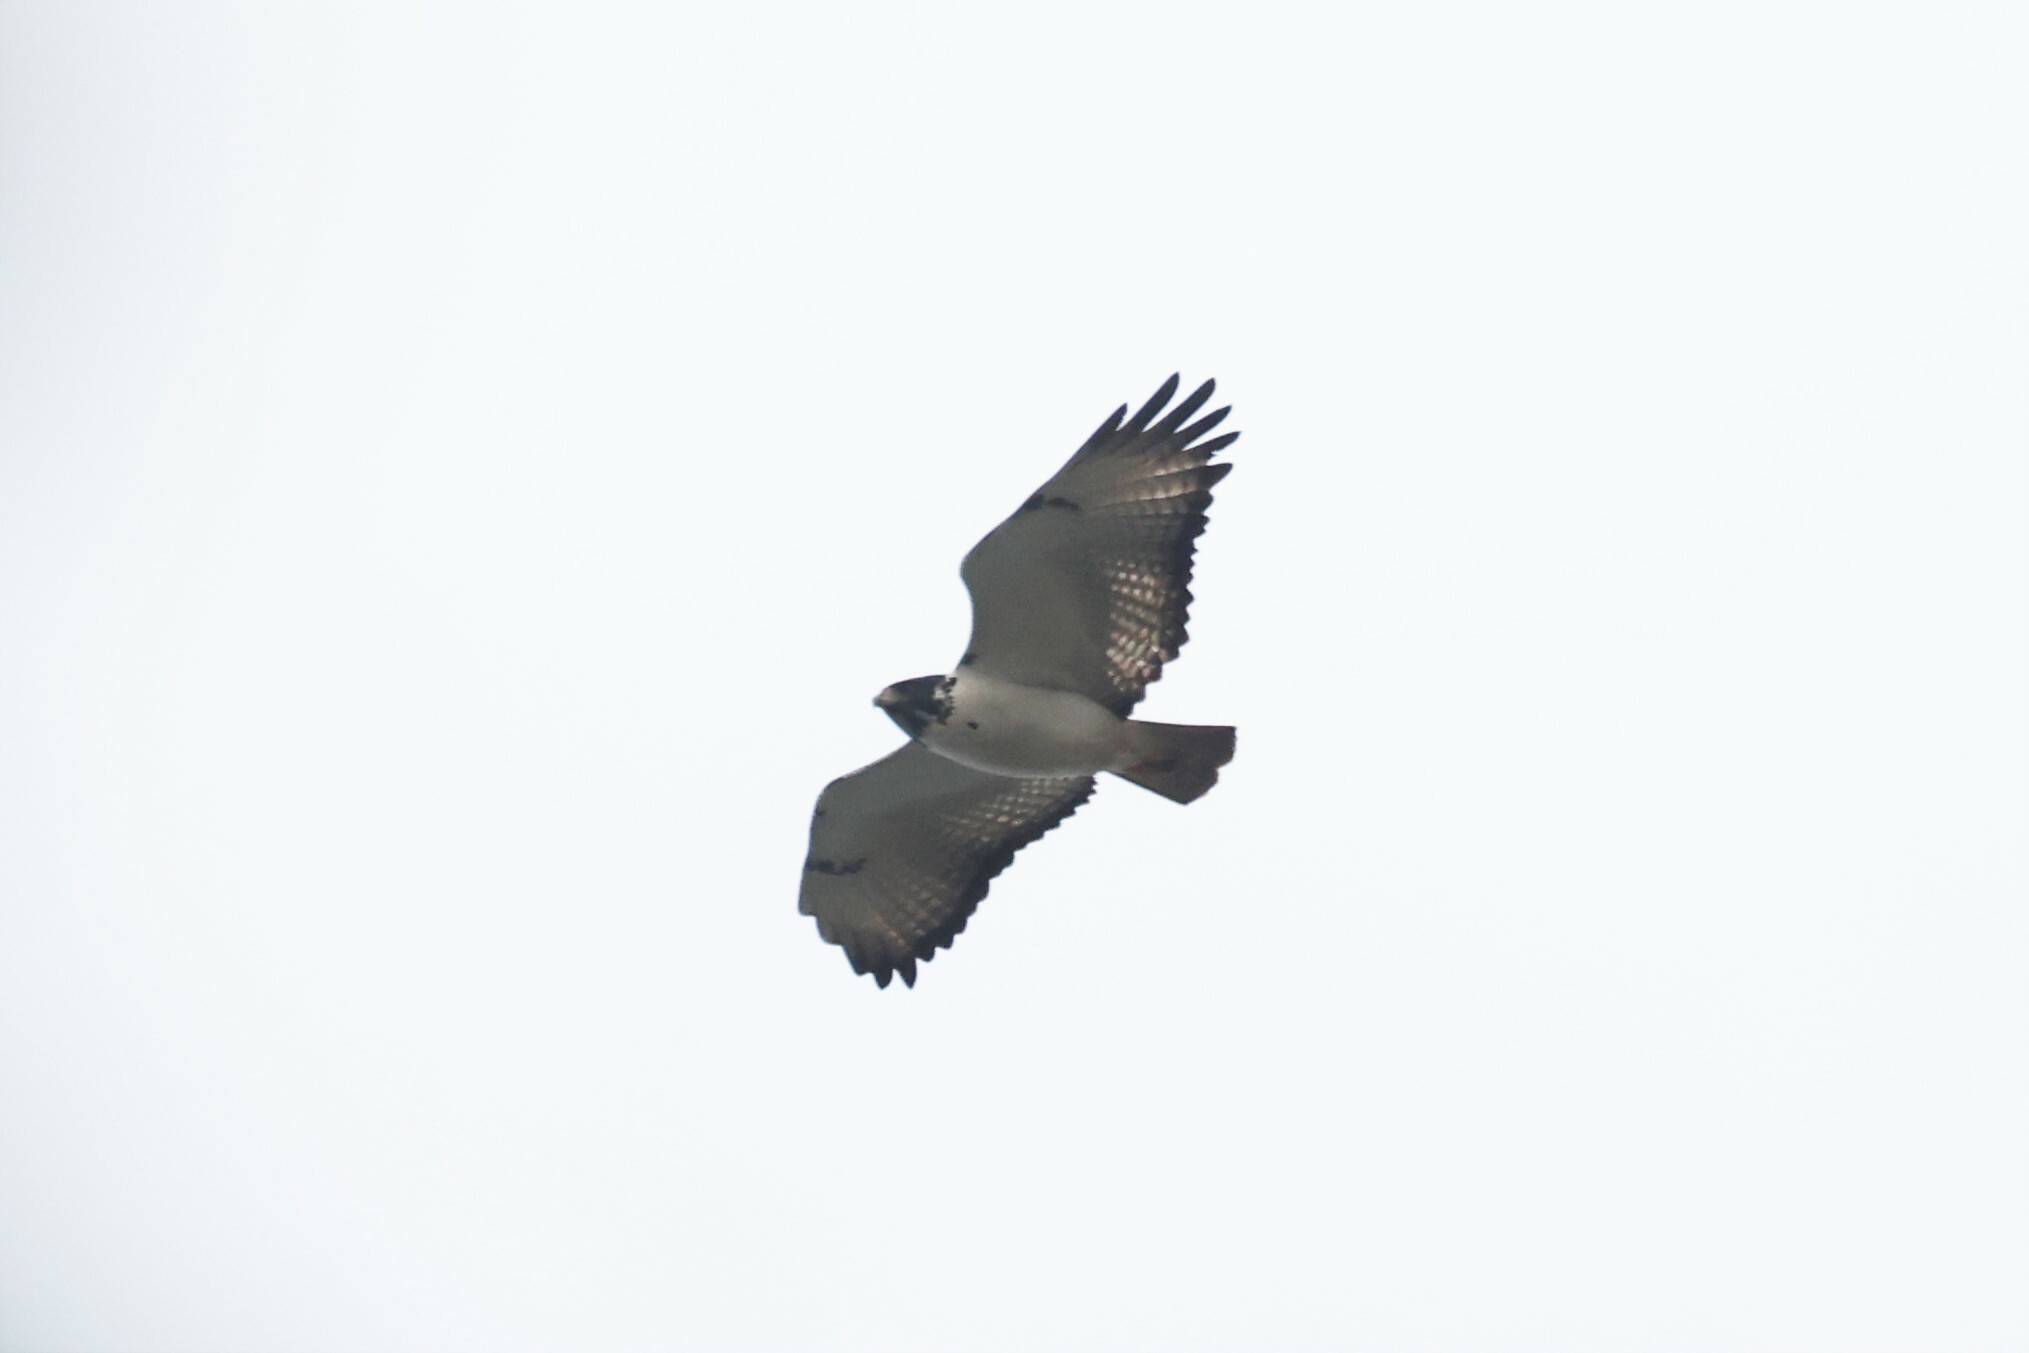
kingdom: Animalia
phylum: Chordata
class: Aves
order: Accipitriformes
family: Accipitridae
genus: Buteo
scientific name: Buteo augur
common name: Augur buzzard
